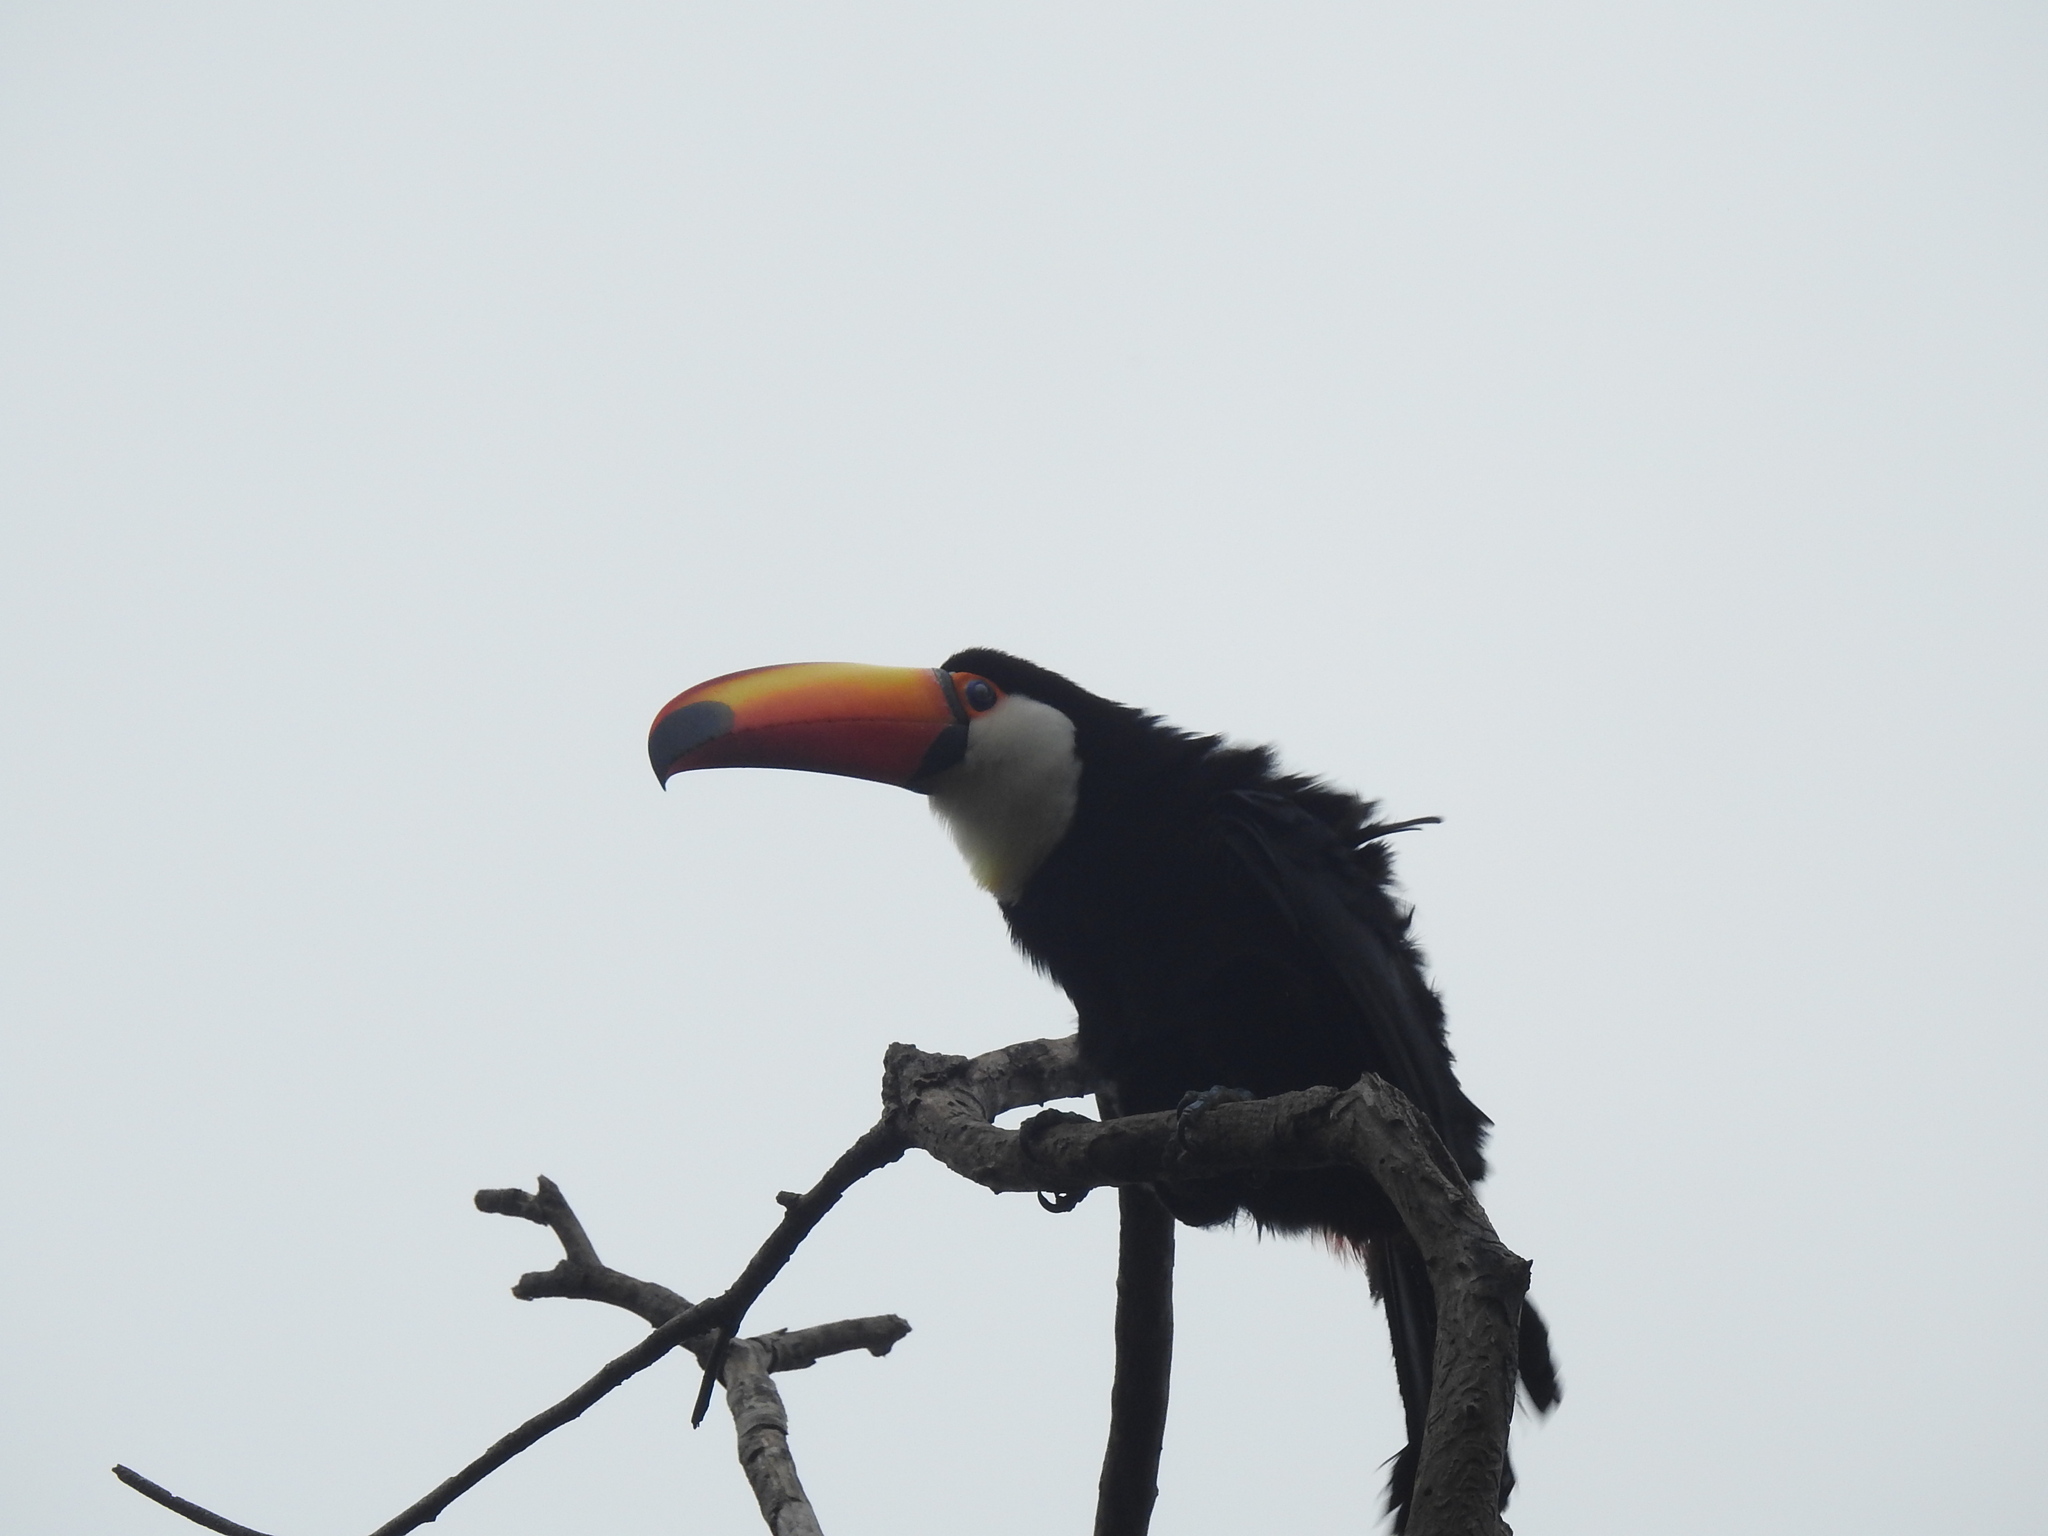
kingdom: Animalia
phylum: Chordata
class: Aves
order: Piciformes
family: Ramphastidae
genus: Ramphastos
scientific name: Ramphastos toco
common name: Toco toucan
